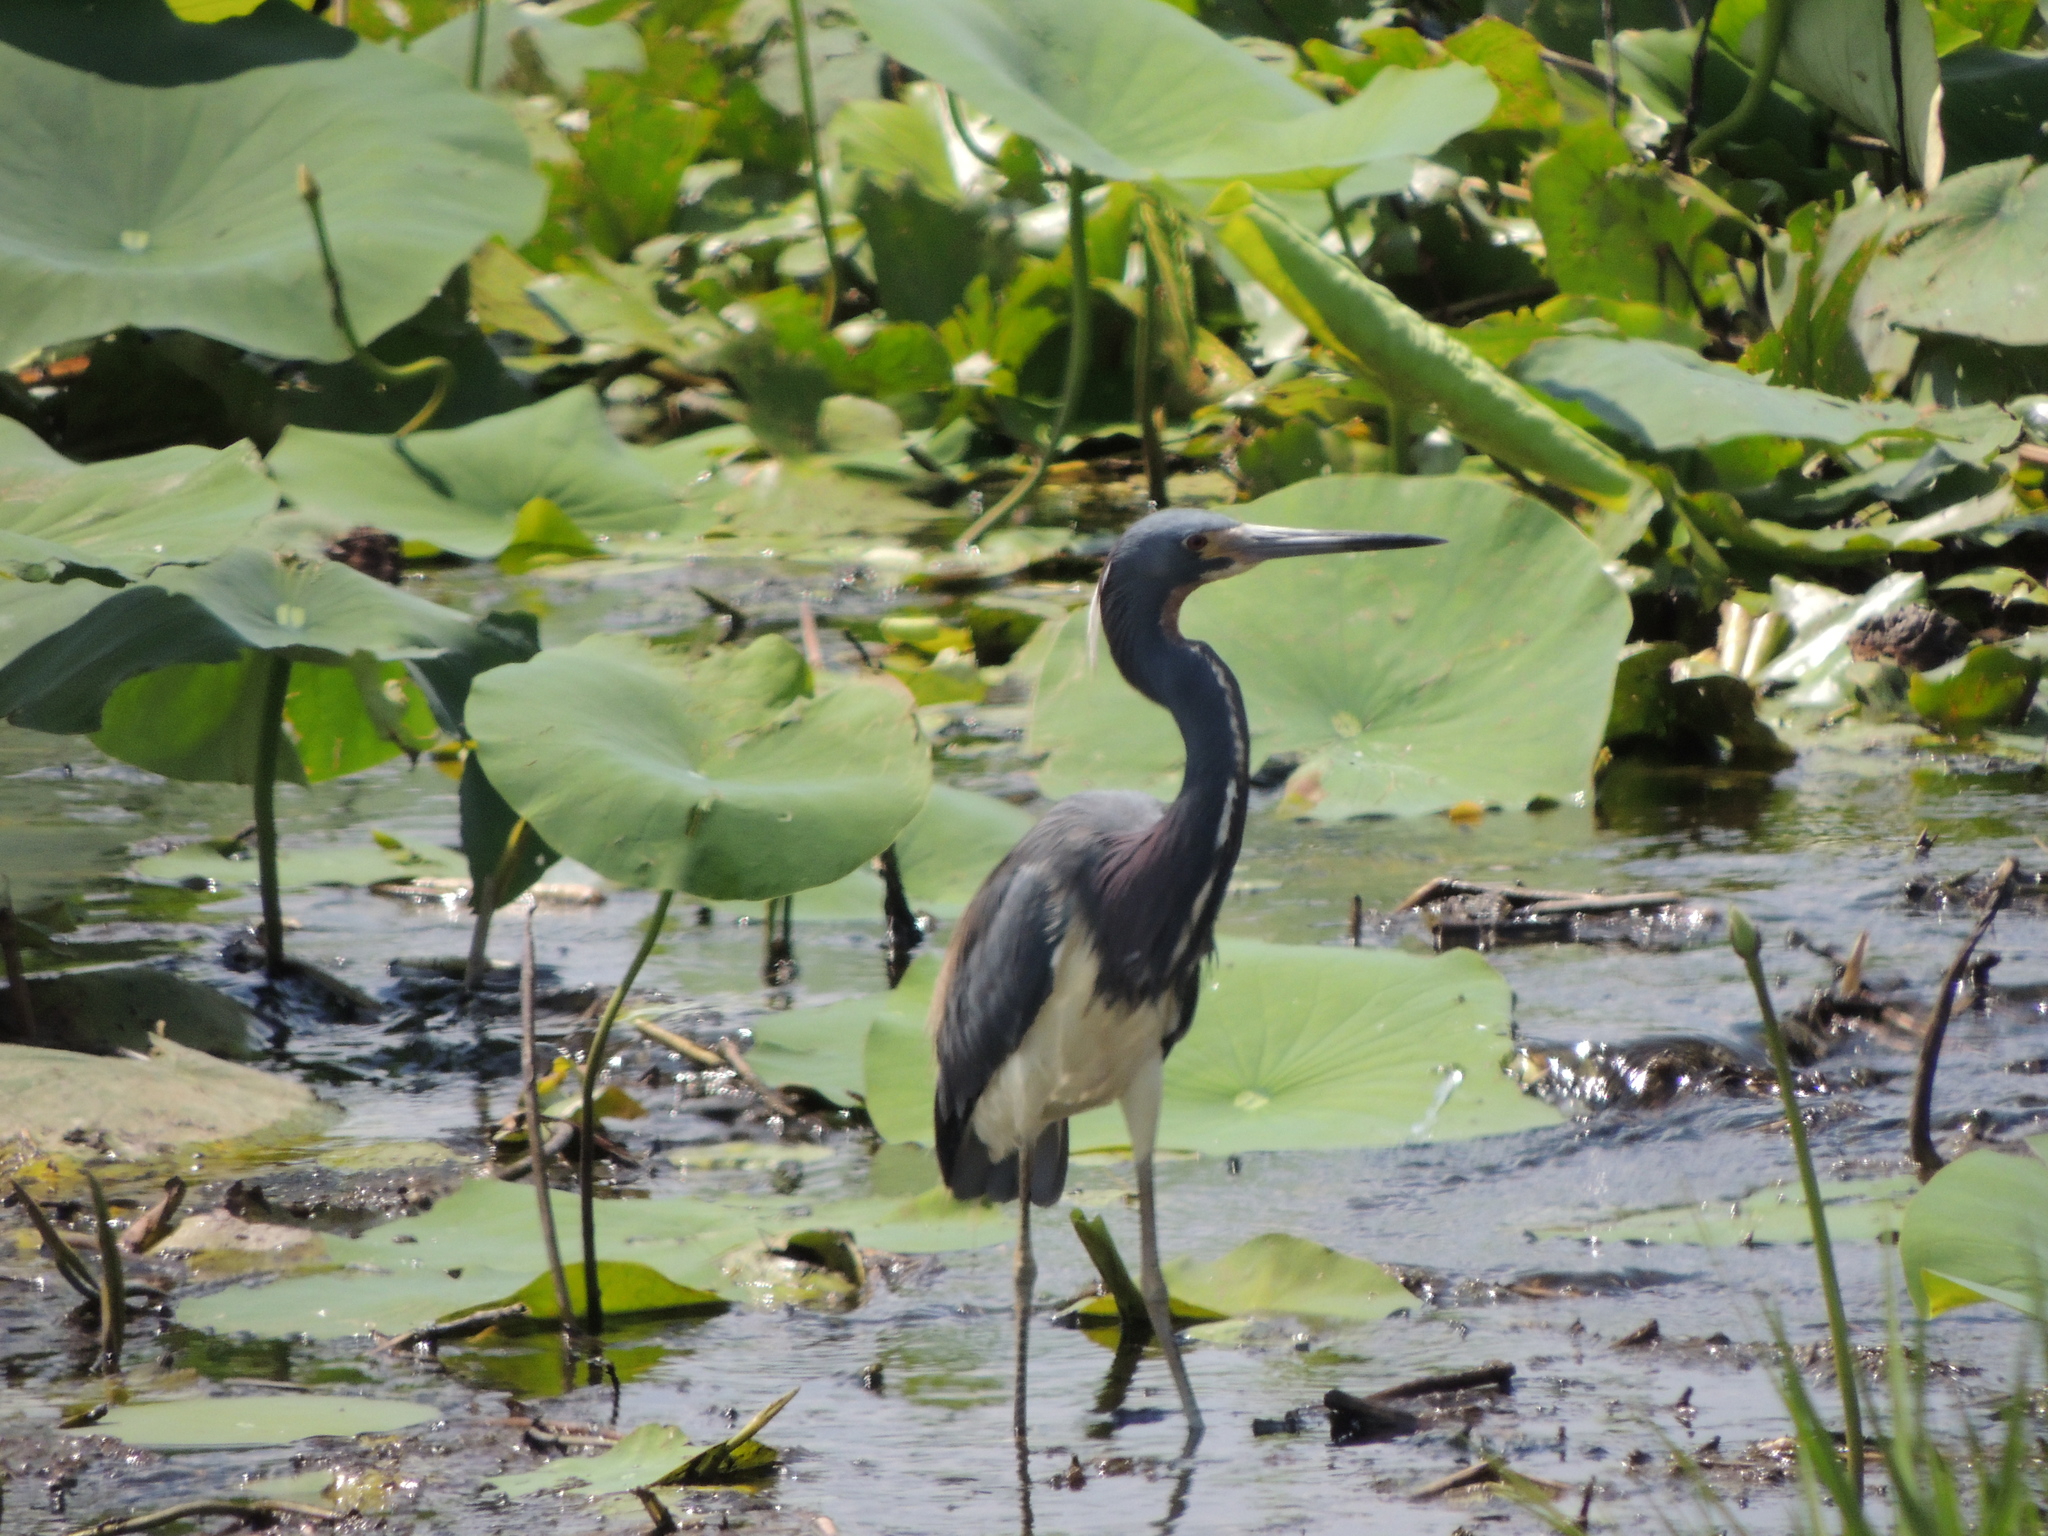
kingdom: Animalia
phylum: Chordata
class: Aves
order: Pelecaniformes
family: Ardeidae
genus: Egretta
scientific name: Egretta tricolor
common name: Tricolored heron
